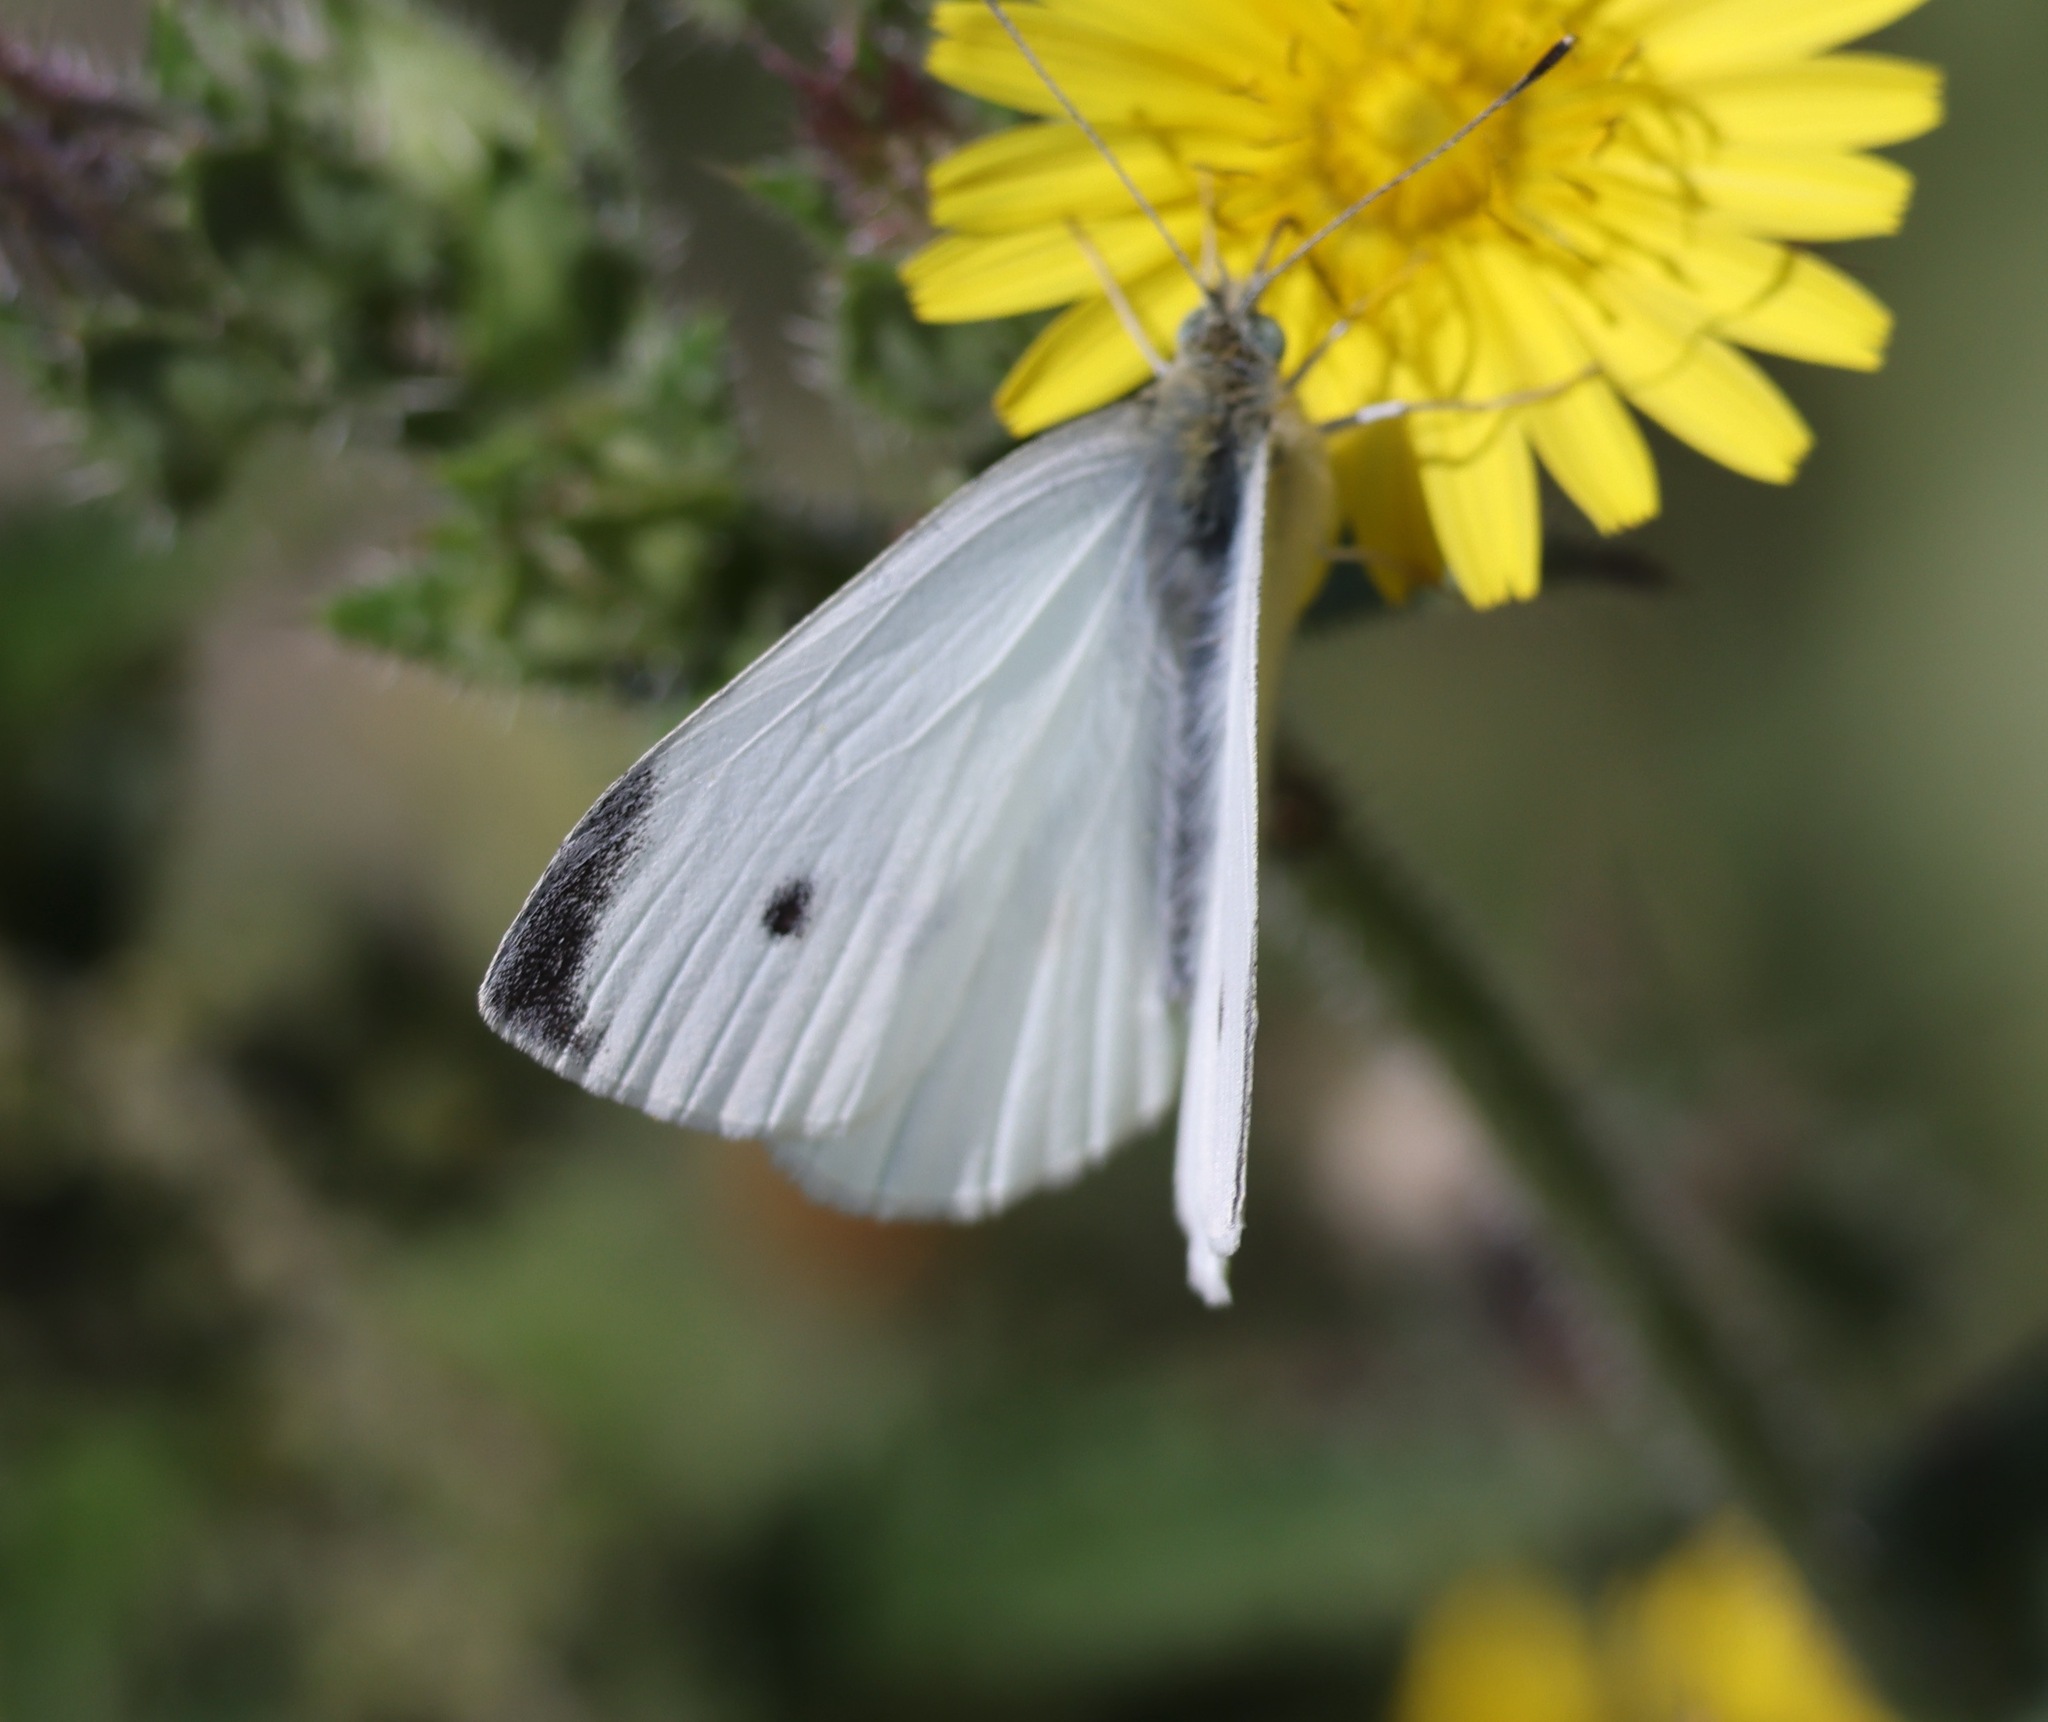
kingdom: Animalia
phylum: Arthropoda
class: Insecta
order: Lepidoptera
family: Pieridae
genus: Pieris
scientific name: Pieris rapae
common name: Small white
